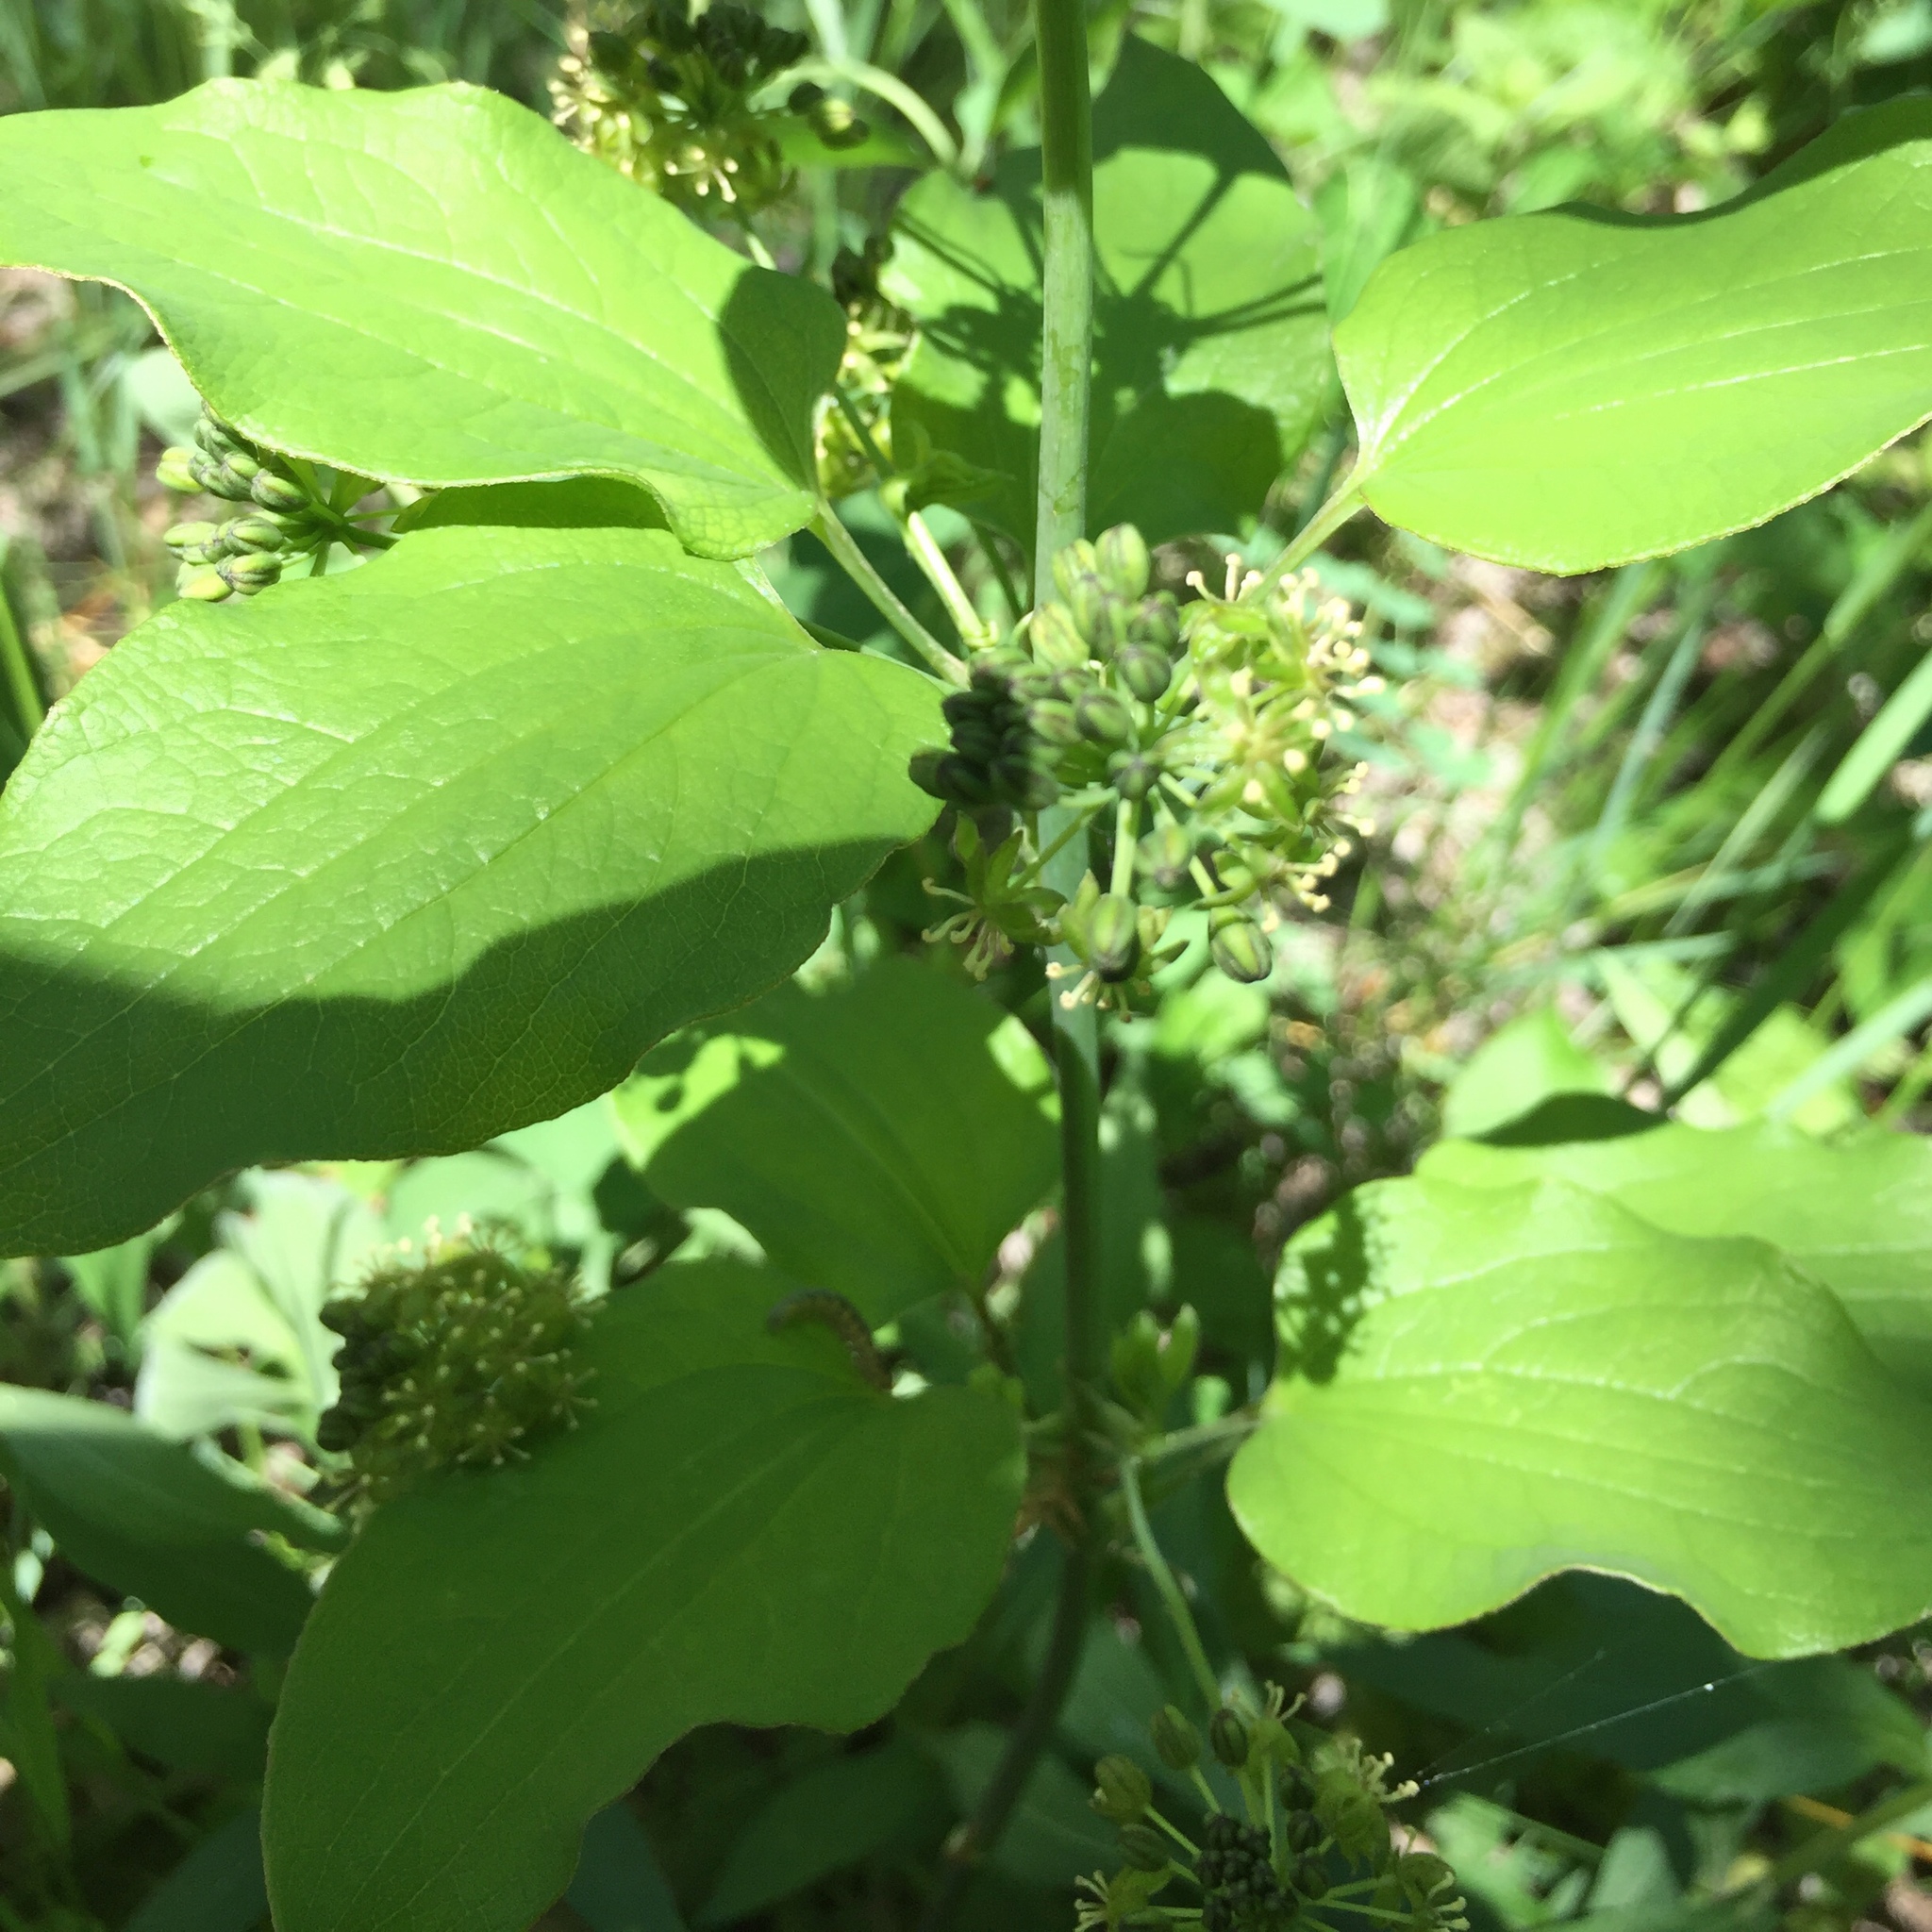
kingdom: Plantae
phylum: Tracheophyta
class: Liliopsida
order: Liliales
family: Smilacaceae
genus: Smilax
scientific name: Smilax lasioneura
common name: Blue ridge carrionflower
